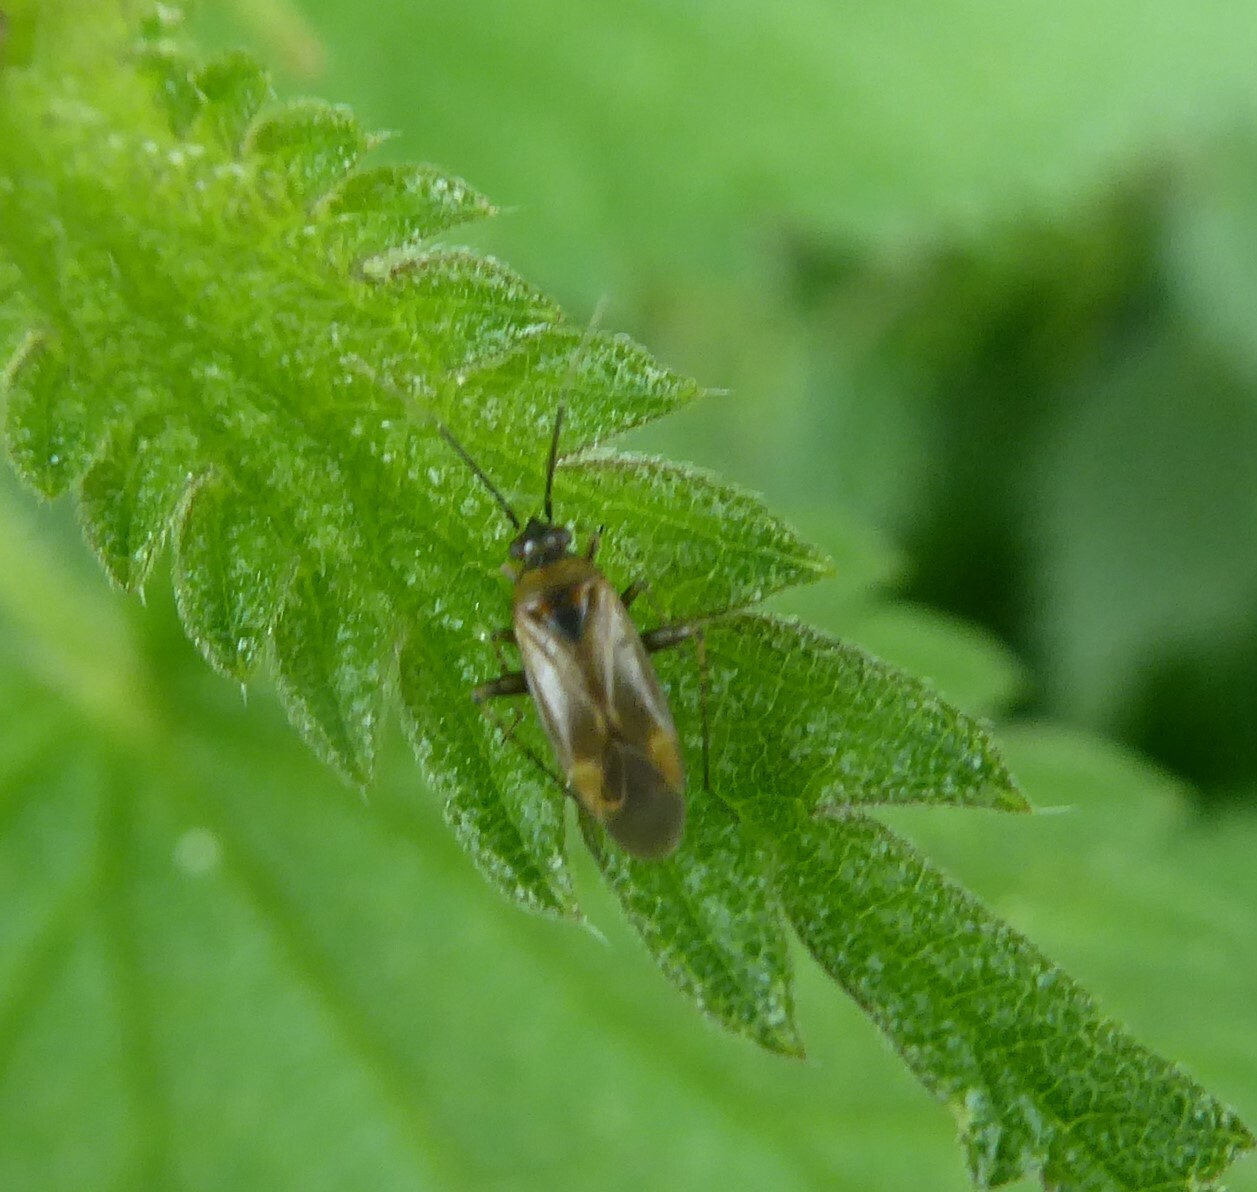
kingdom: Animalia
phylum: Arthropoda
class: Insecta
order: Hemiptera
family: Miridae
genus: Plagiognathus
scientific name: Plagiognathus arbustorum
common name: Plant bug
